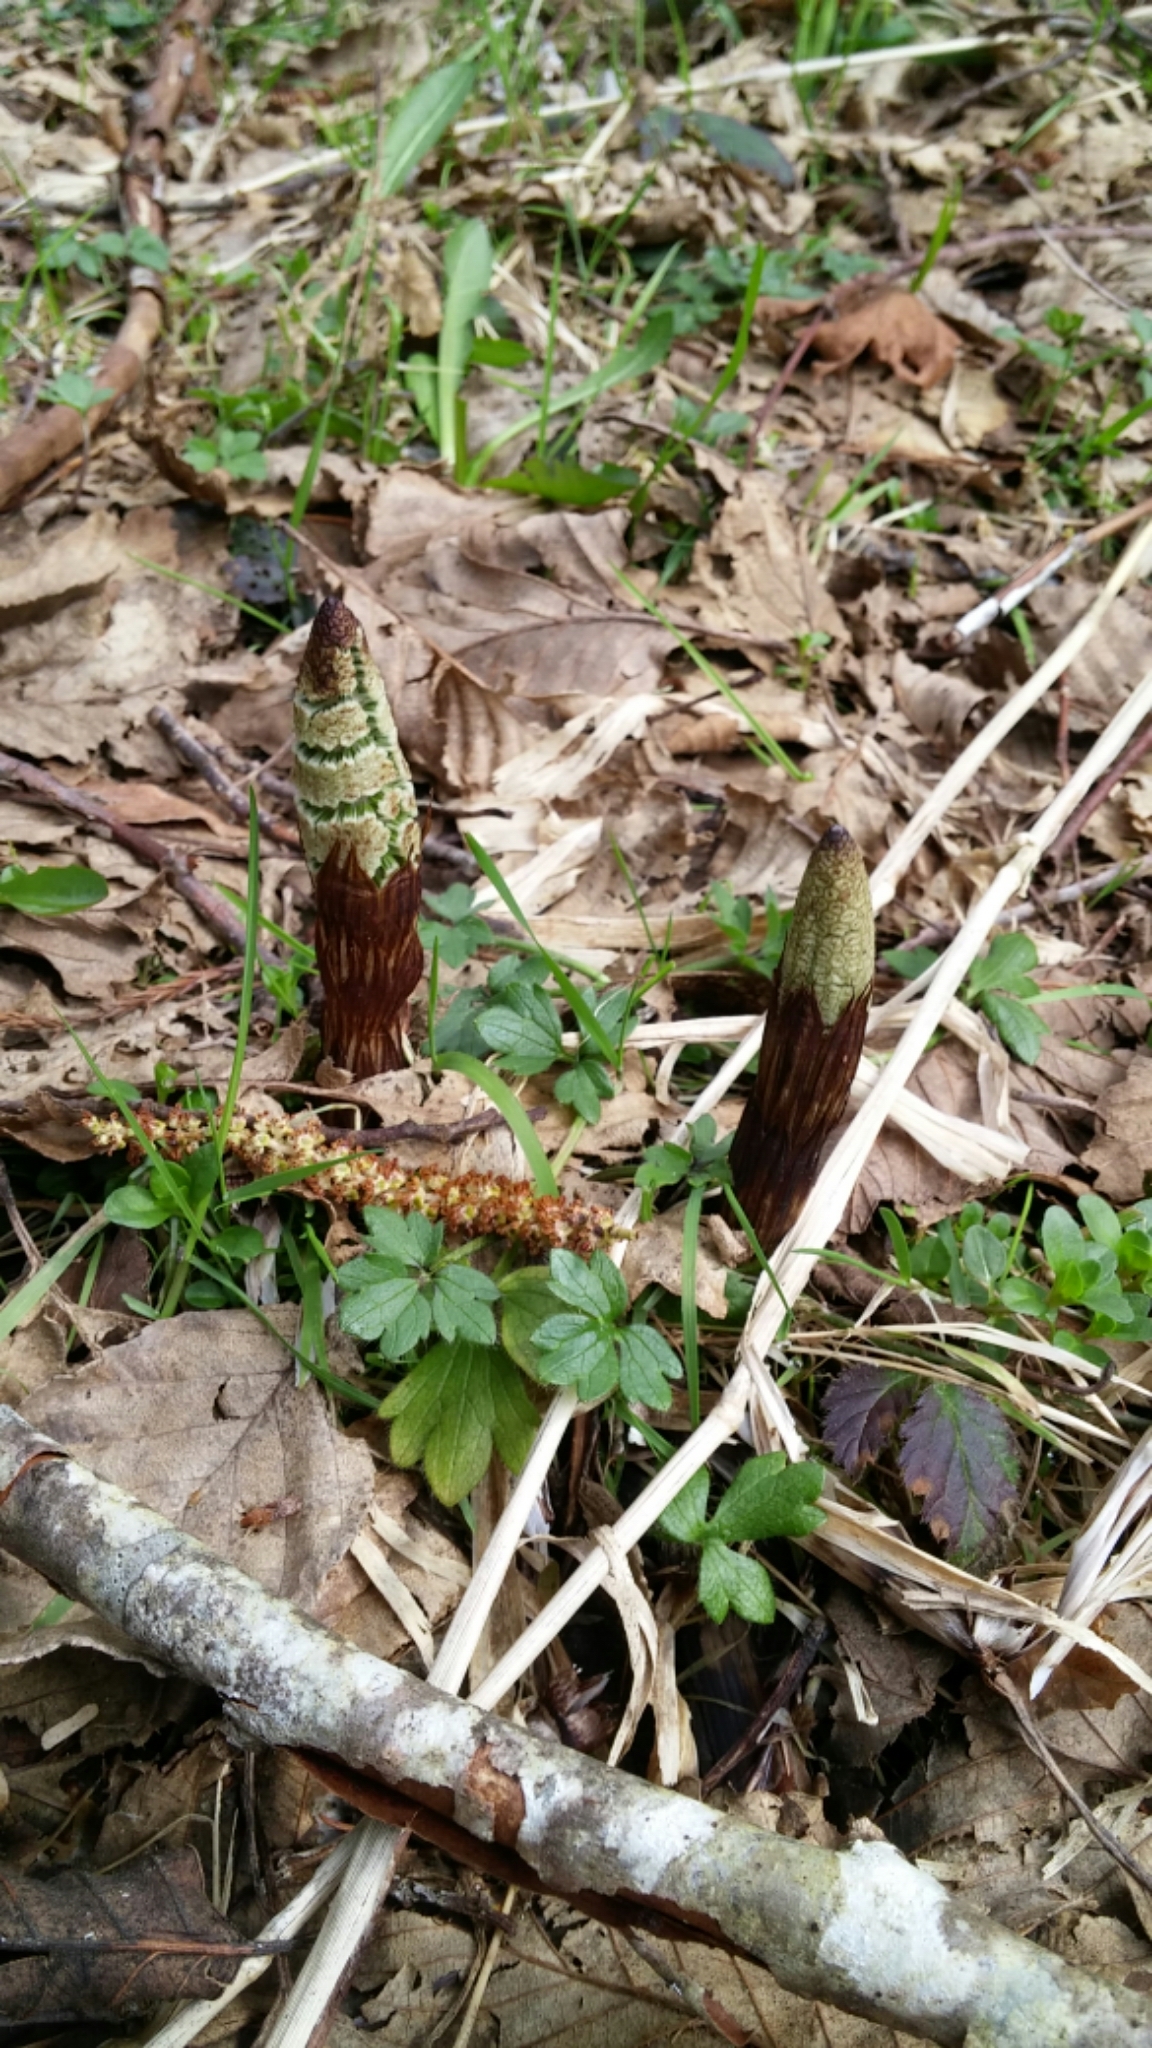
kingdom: Plantae
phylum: Tracheophyta
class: Polypodiopsida
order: Equisetales
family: Equisetaceae
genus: Equisetum
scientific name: Equisetum braunii
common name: Braun's horsetail
